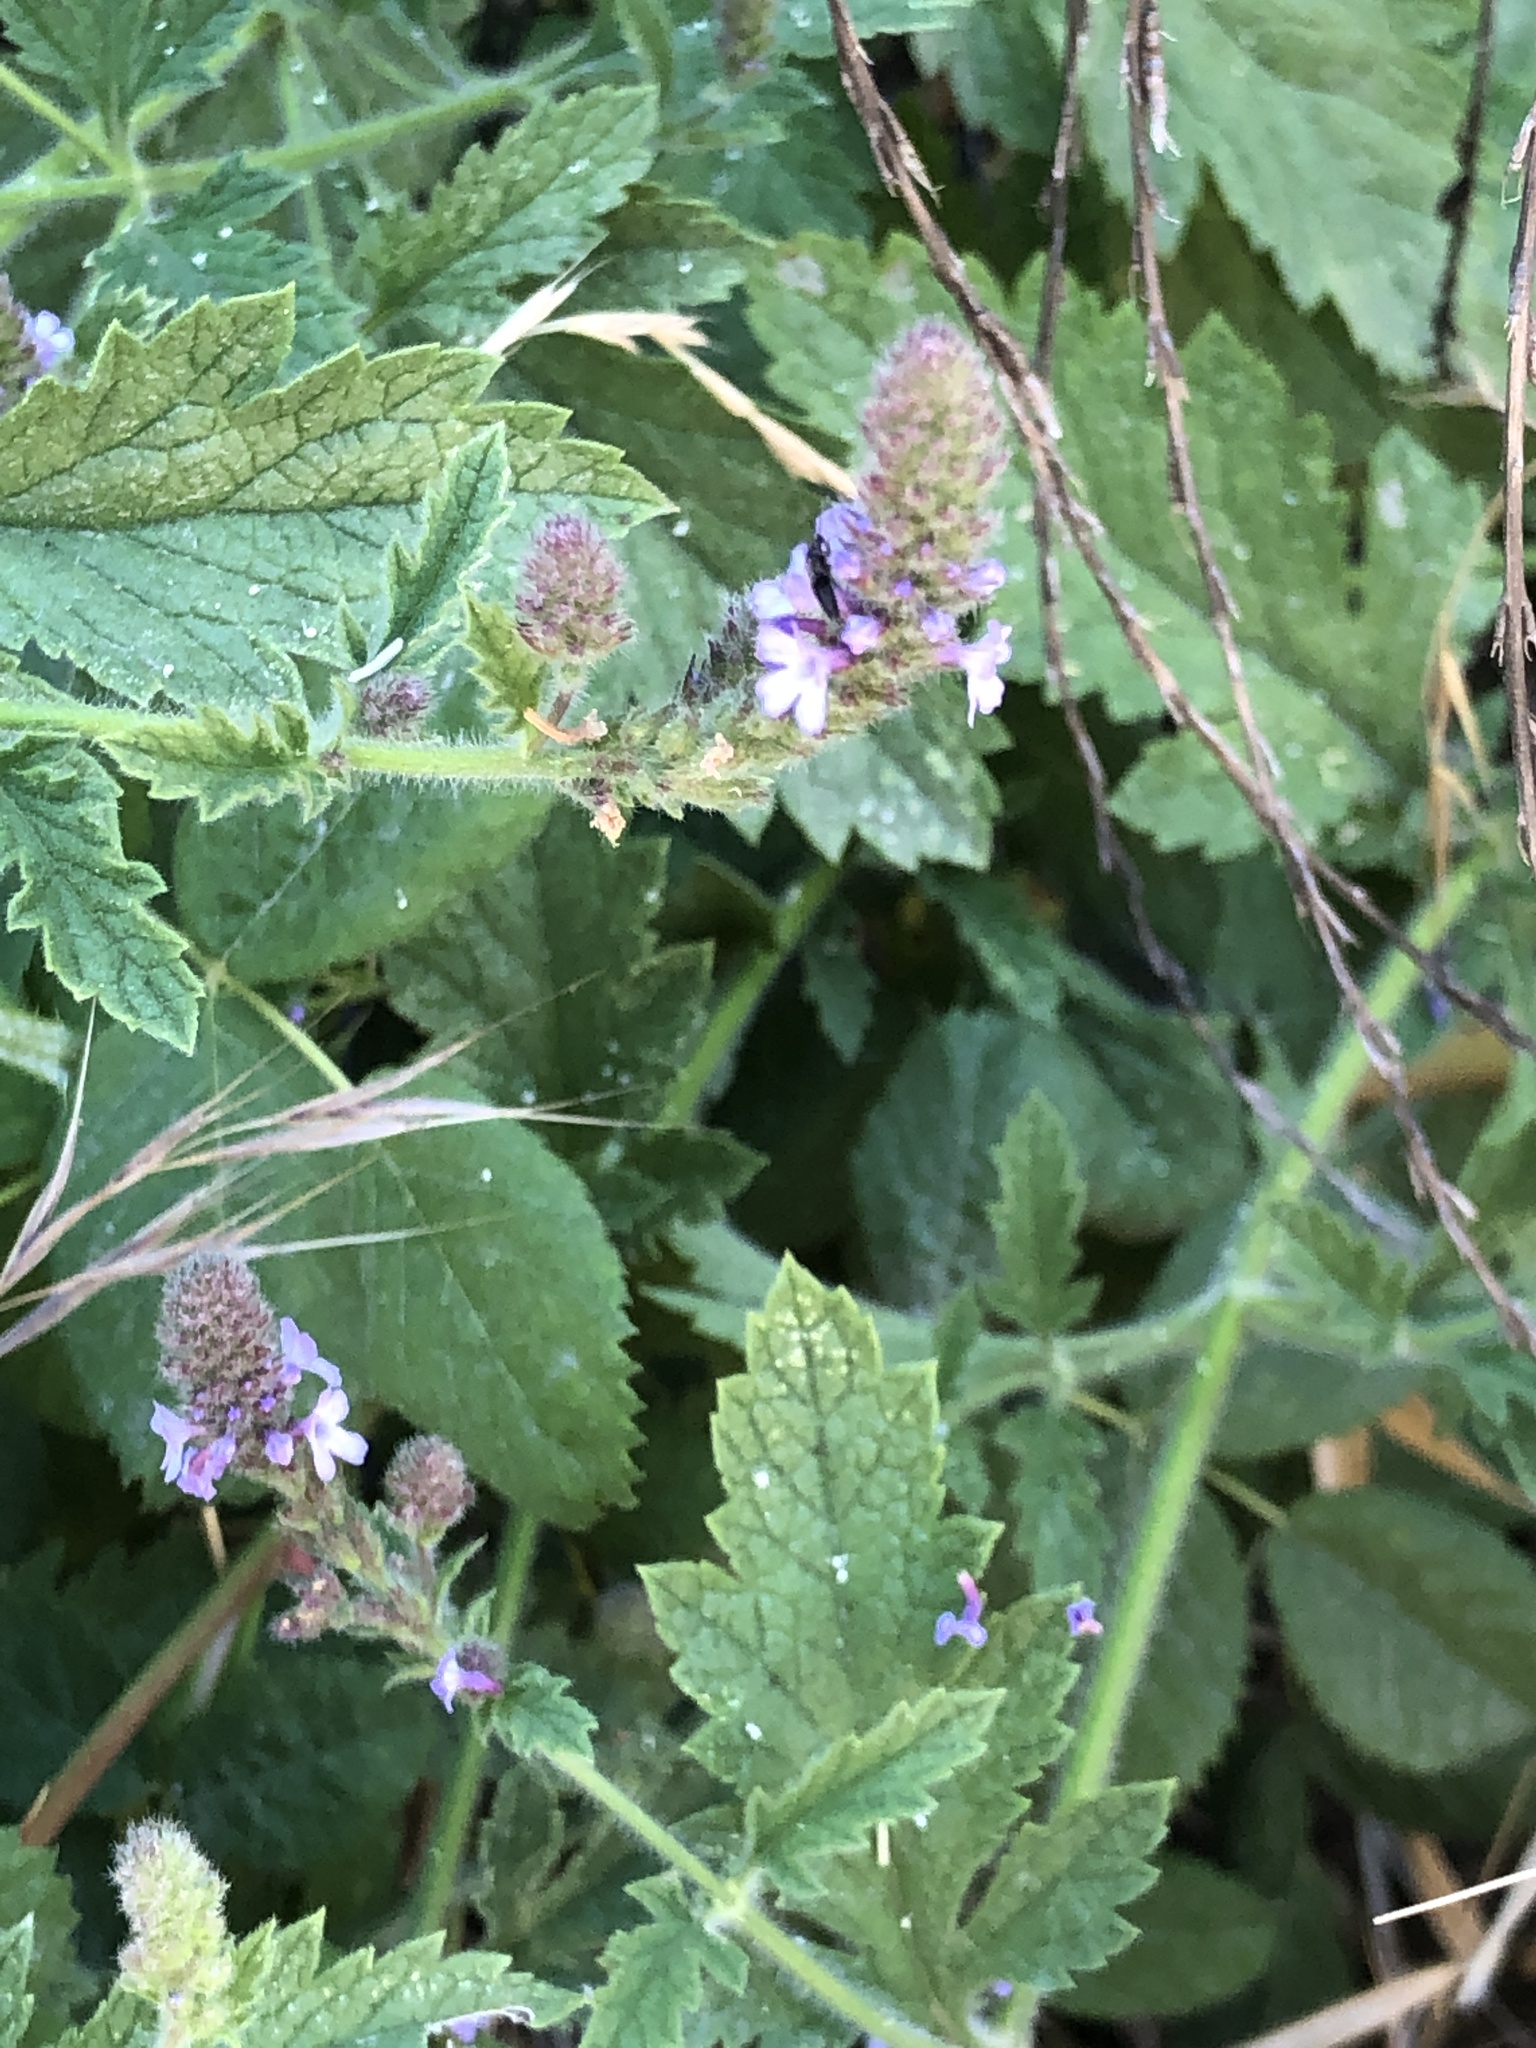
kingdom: Plantae
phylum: Tracheophyta
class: Magnoliopsida
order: Lamiales
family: Verbenaceae
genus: Verbena
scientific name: Verbena lasiostachys
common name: Vervain
